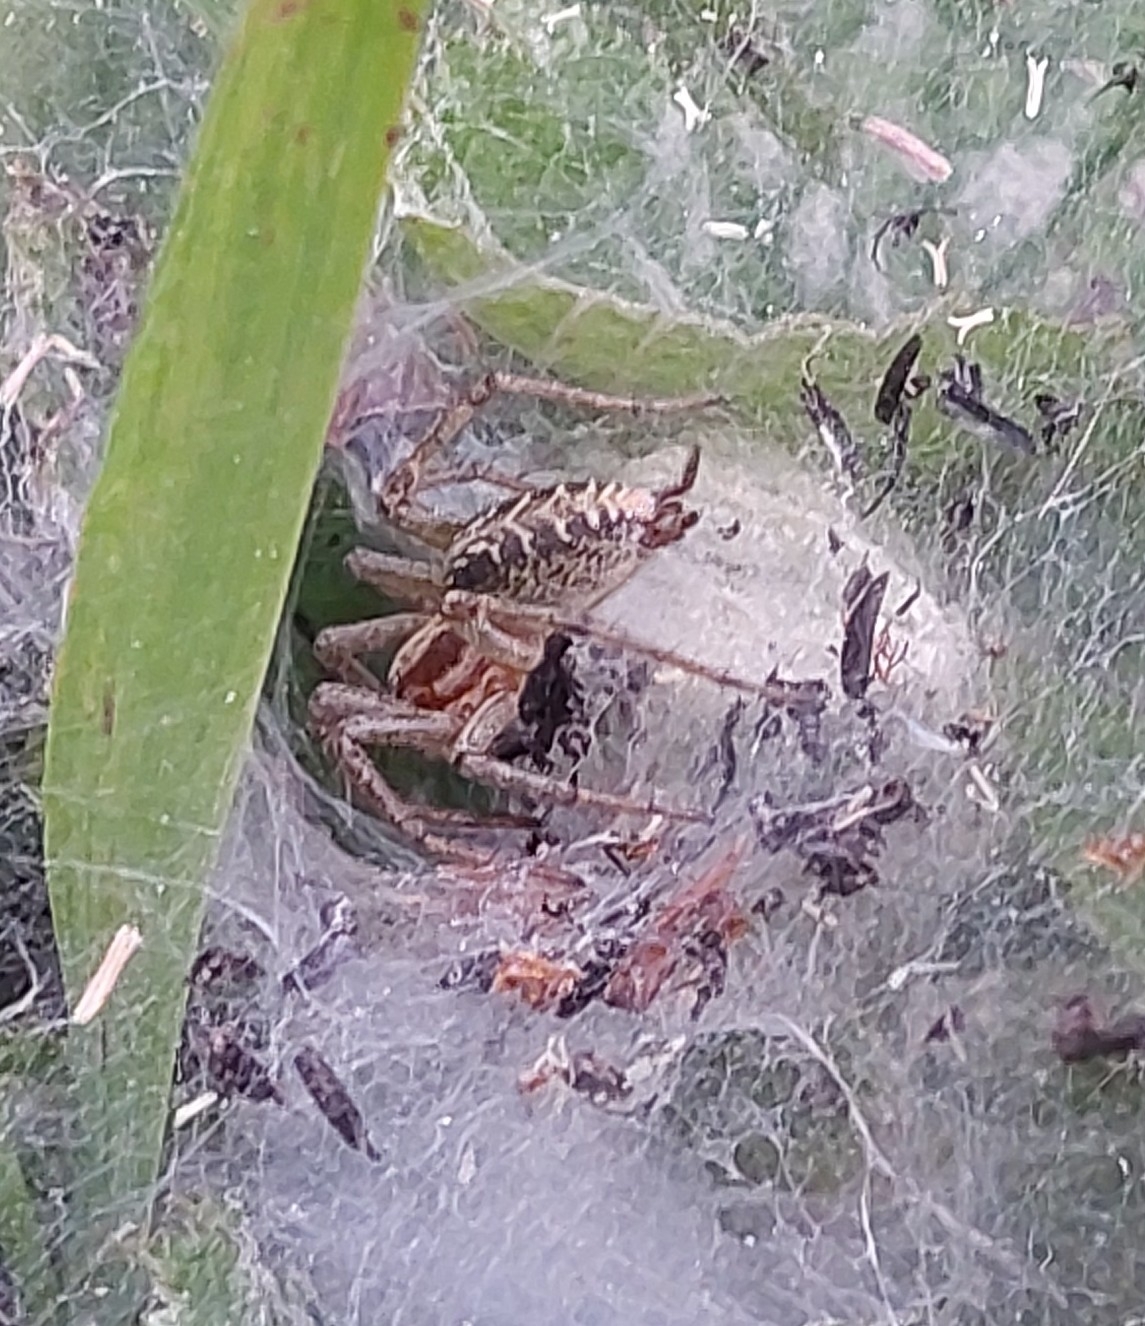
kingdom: Animalia
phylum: Arthropoda
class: Arachnida
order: Araneae
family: Agelenidae
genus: Agelena
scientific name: Agelena labyrinthica
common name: Labyrinth spider
